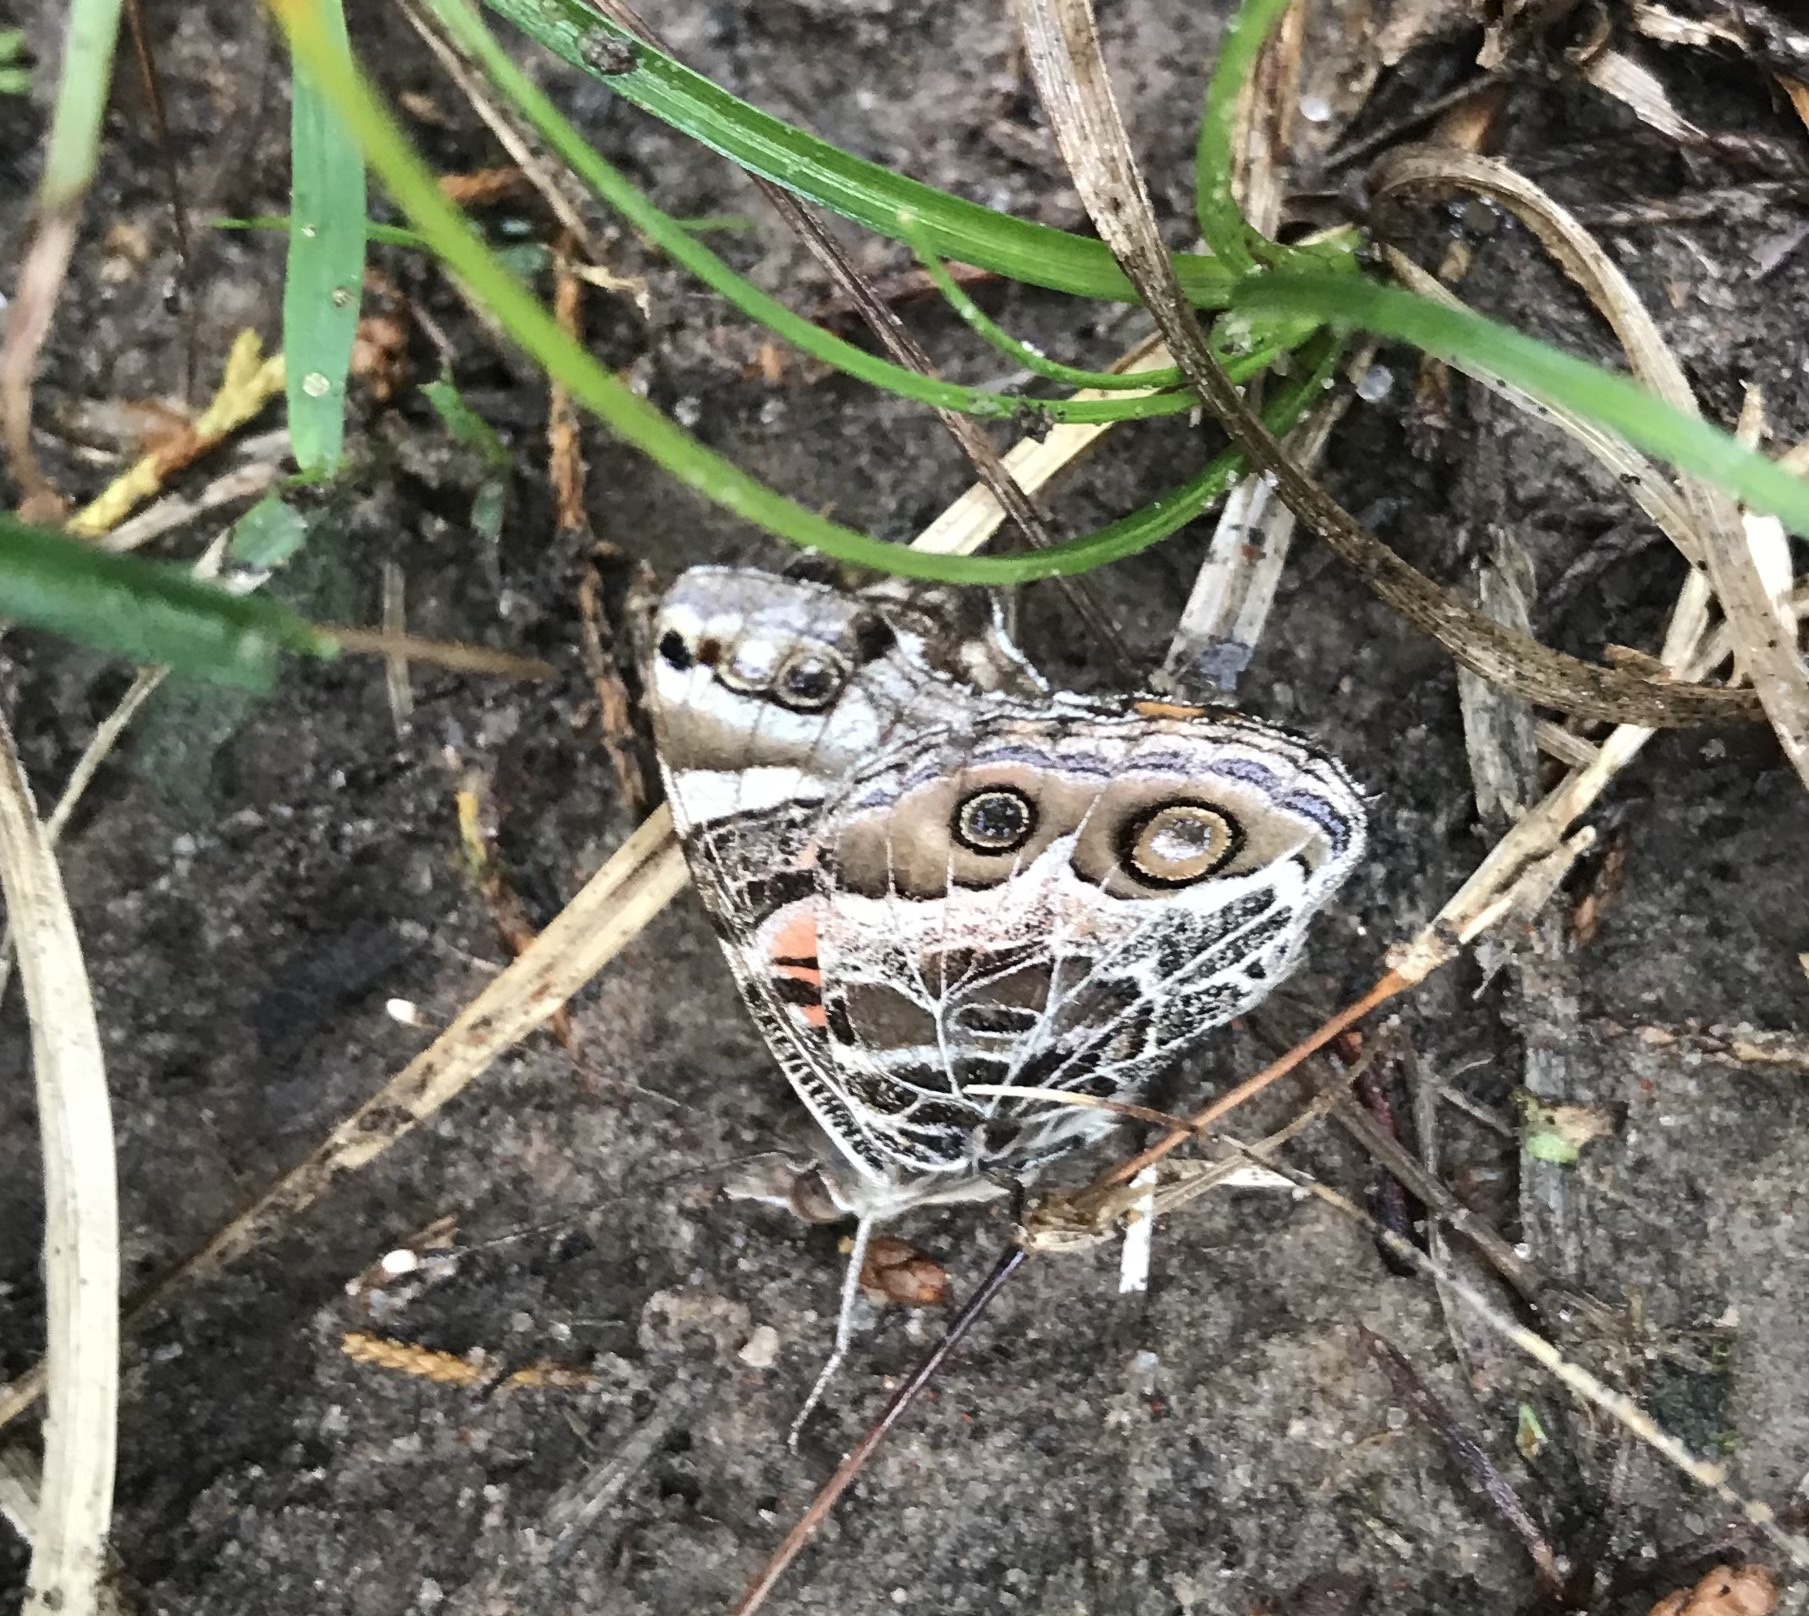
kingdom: Animalia
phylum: Arthropoda
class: Insecta
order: Lepidoptera
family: Nymphalidae
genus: Vanessa
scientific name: Vanessa virginiensis
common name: American lady
